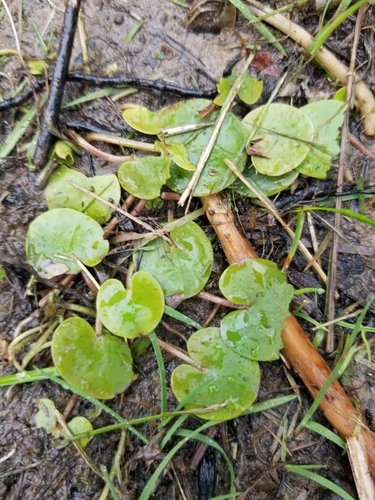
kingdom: Plantae
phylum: Tracheophyta
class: Liliopsida
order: Alismatales
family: Hydrocharitaceae
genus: Hydrocharis
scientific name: Hydrocharis morsus-ranae
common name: European frog-bit
